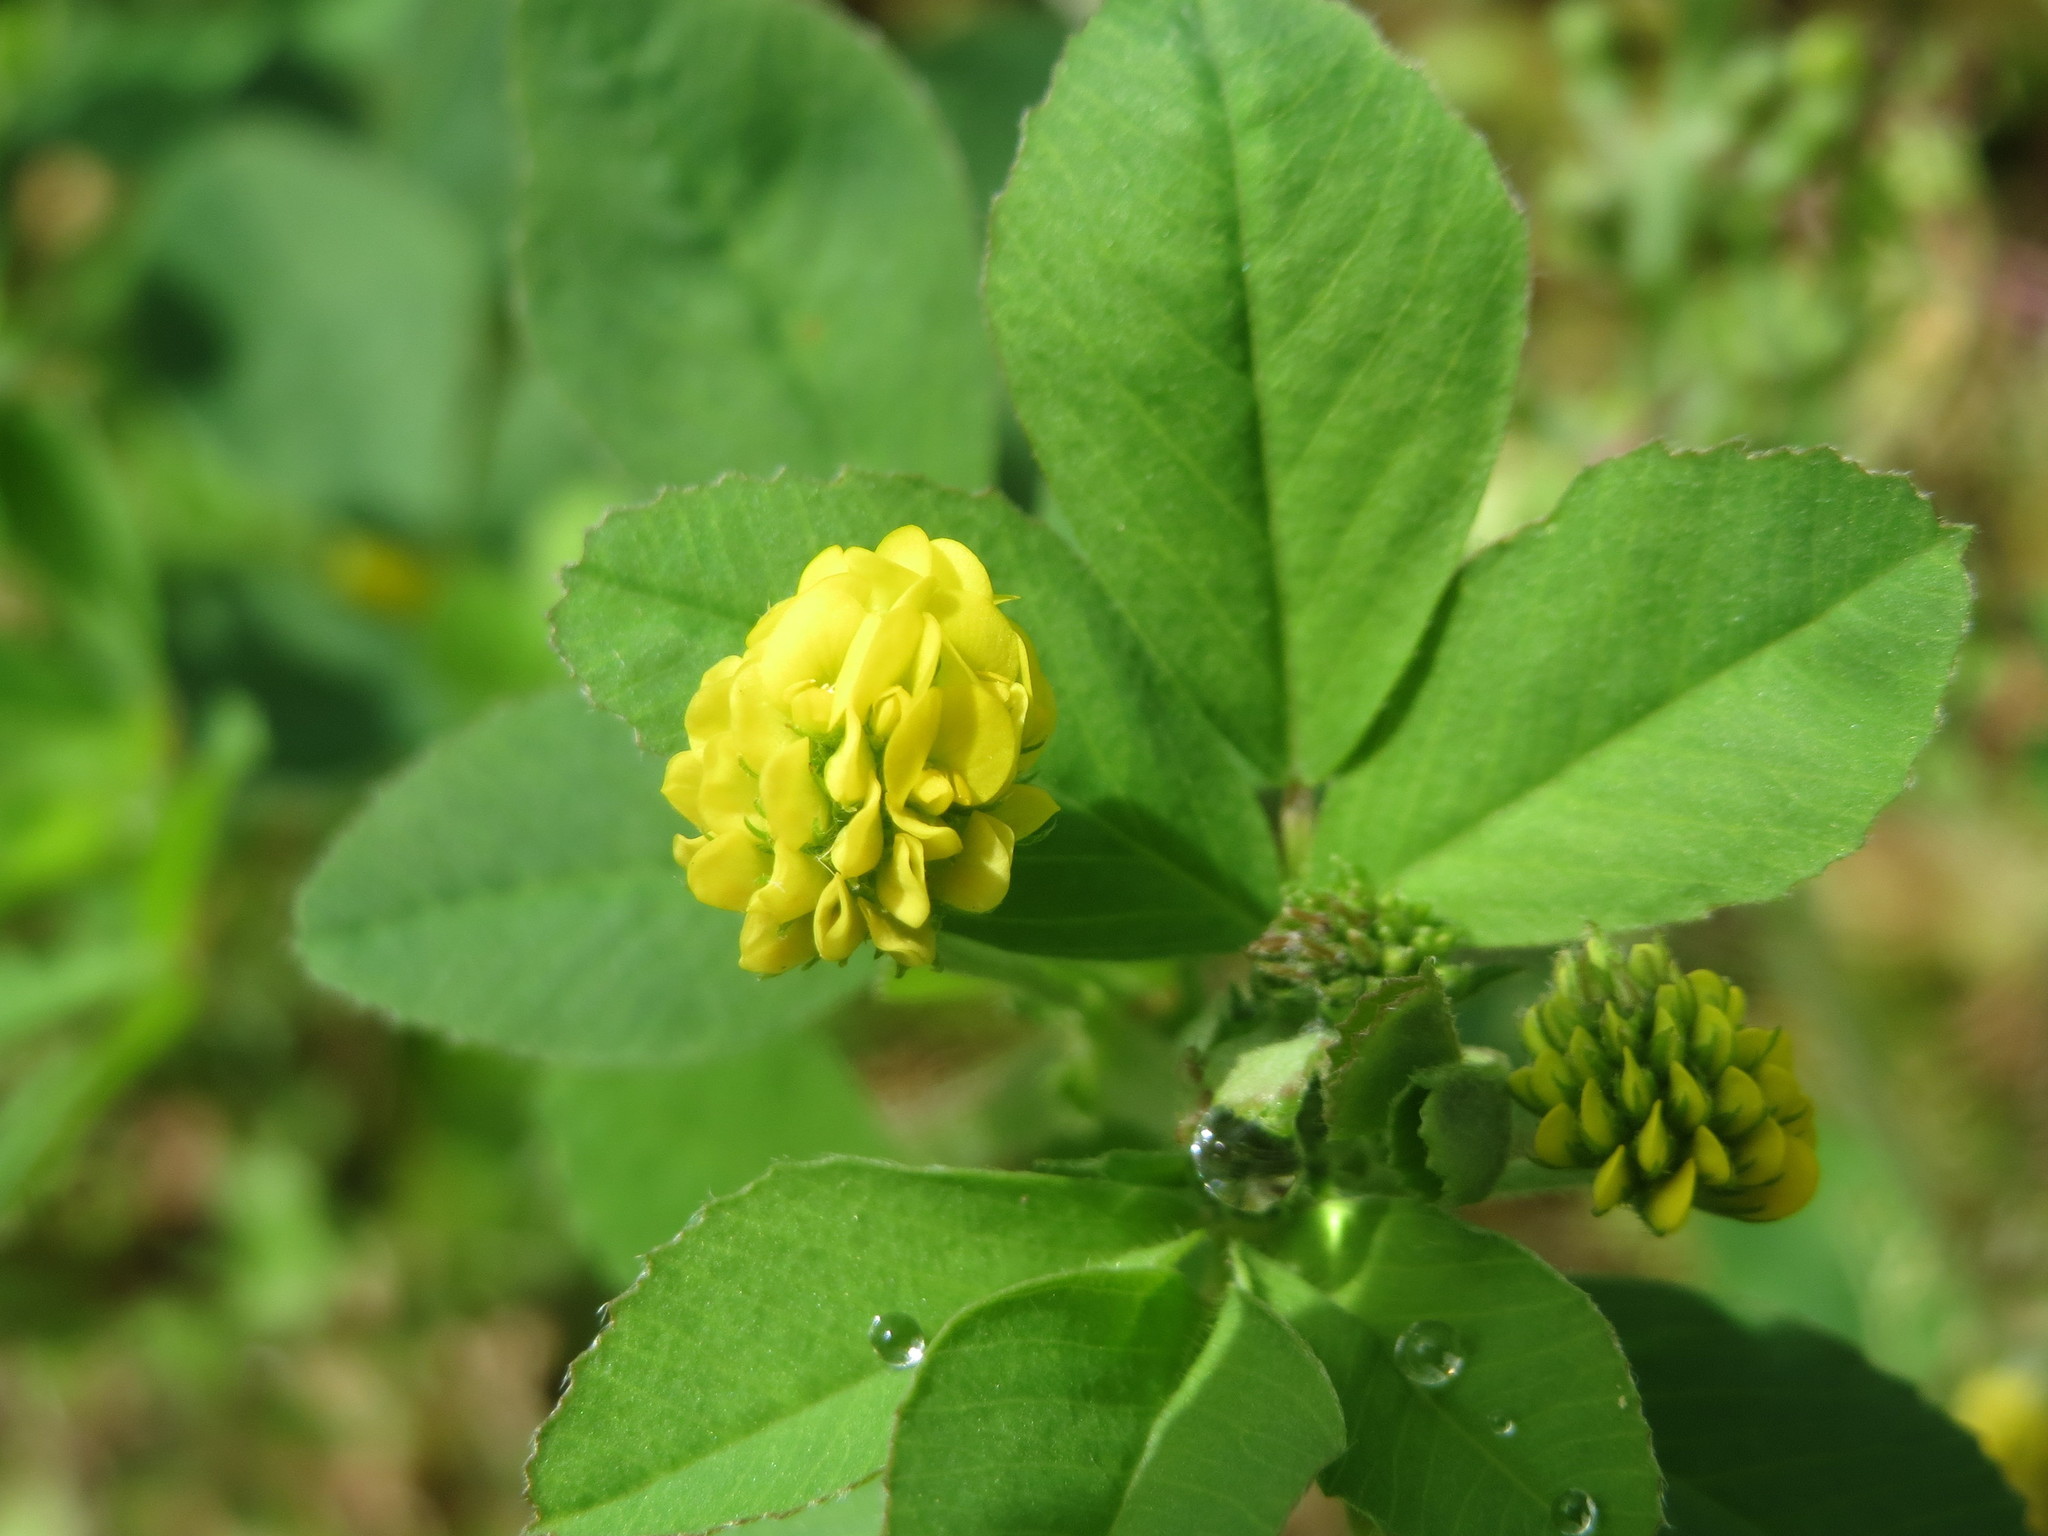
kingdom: Plantae
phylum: Tracheophyta
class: Magnoliopsida
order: Fabales
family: Fabaceae
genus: Medicago
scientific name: Medicago lupulina
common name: Black medick
